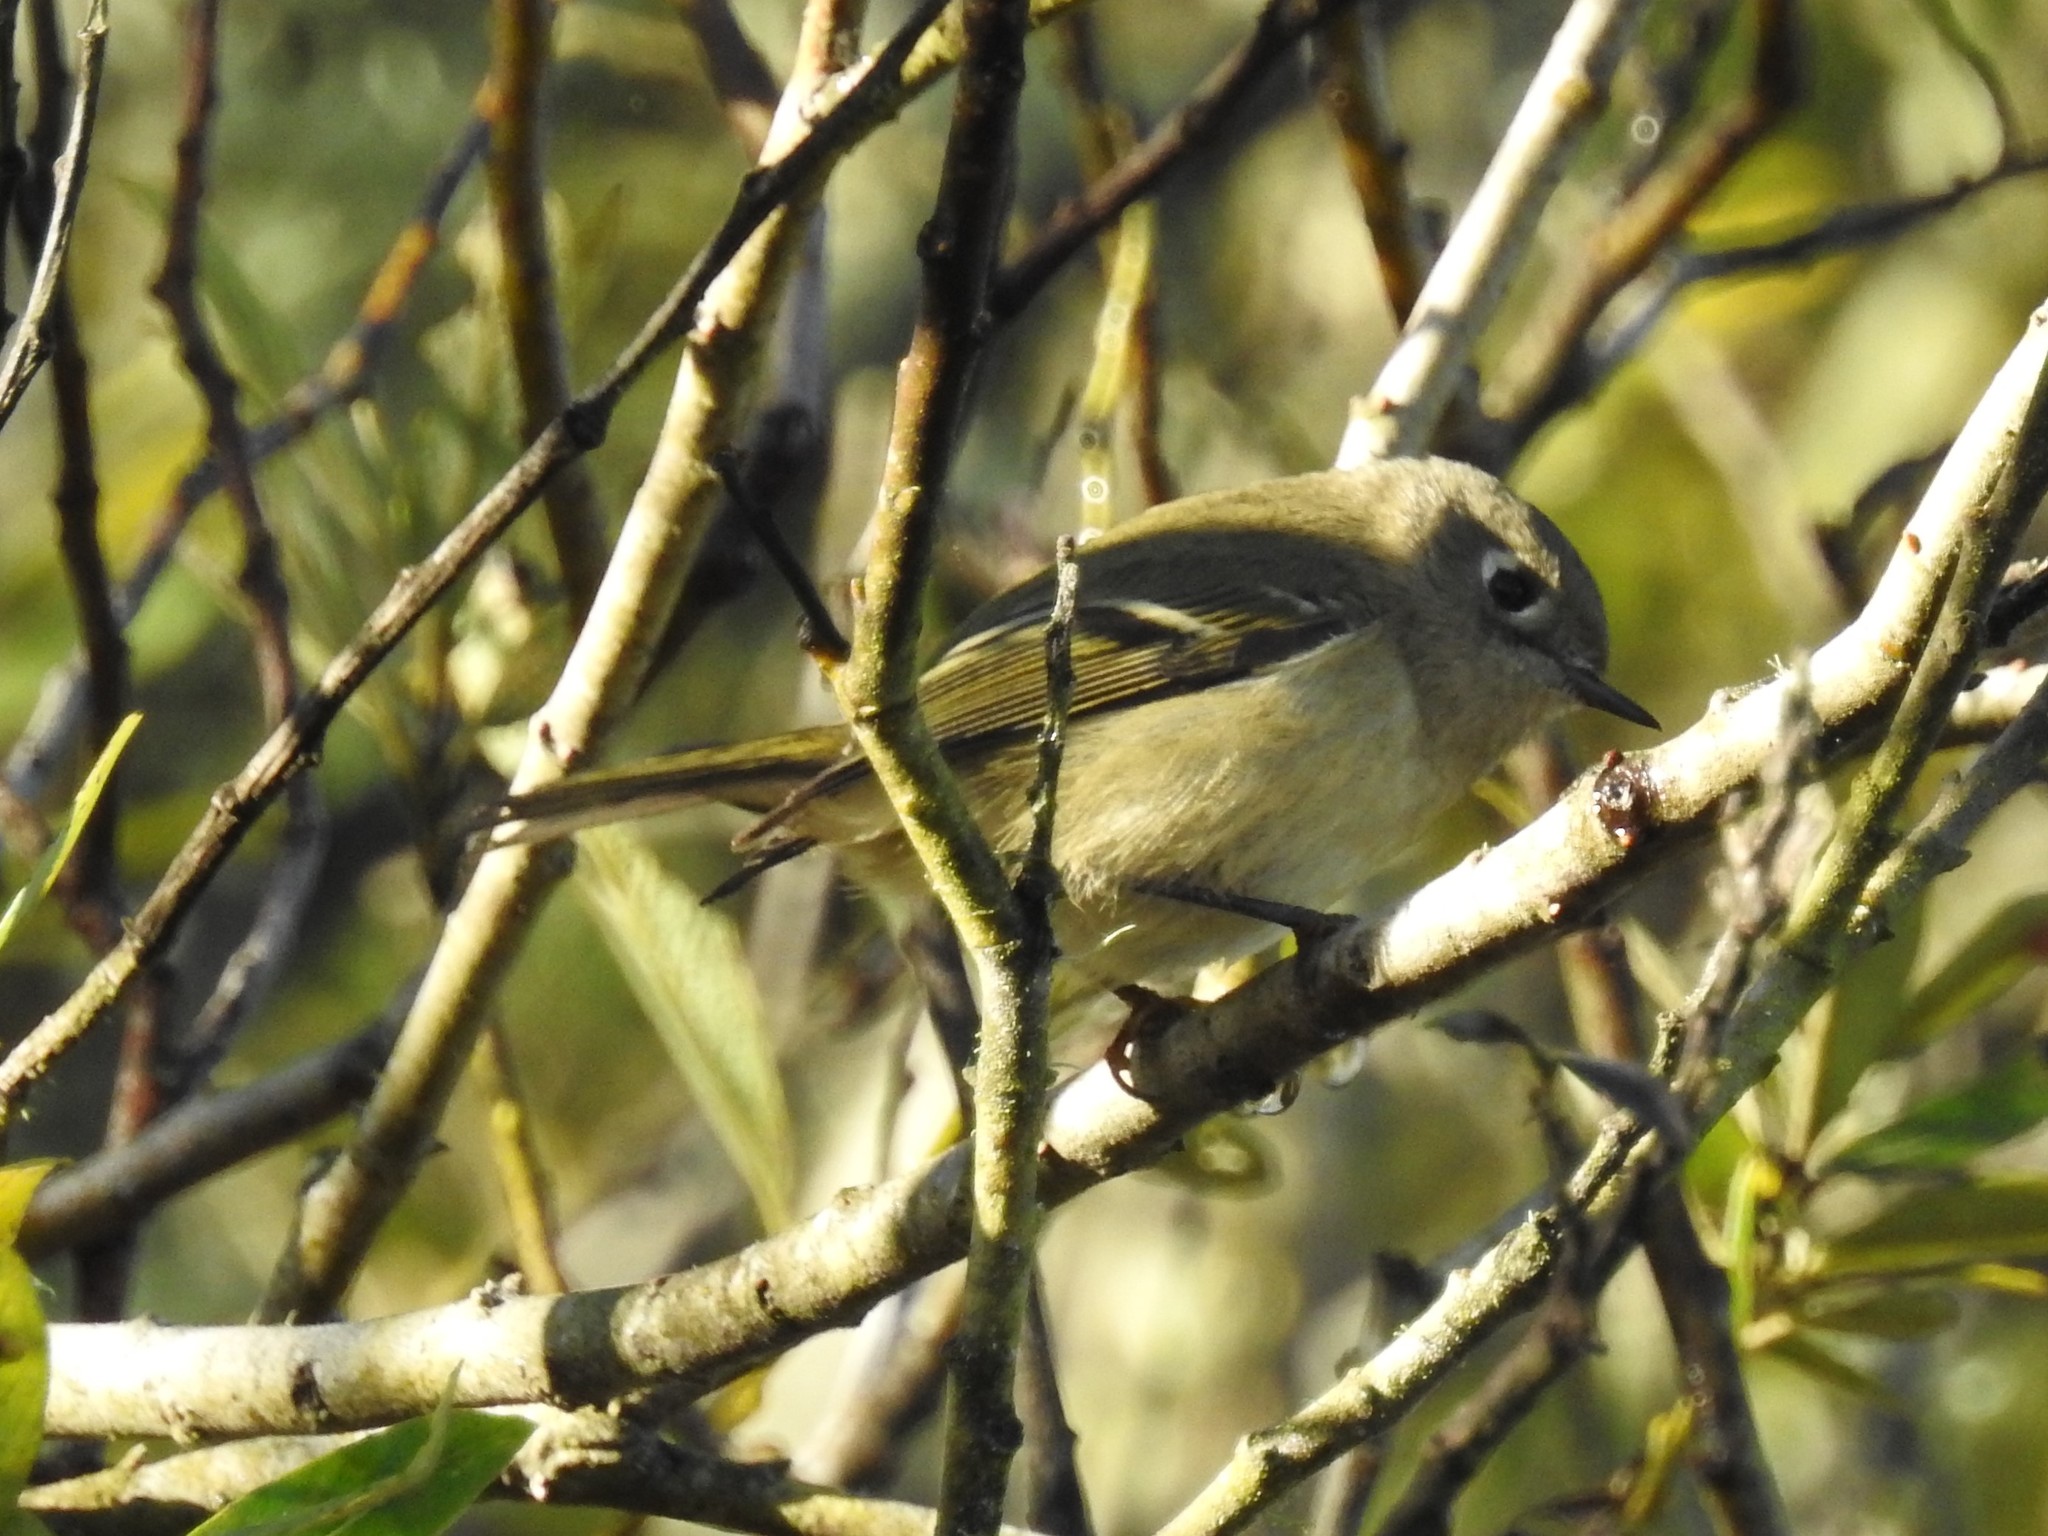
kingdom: Animalia
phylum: Chordata
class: Aves
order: Passeriformes
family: Regulidae
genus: Regulus
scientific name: Regulus calendula
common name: Ruby-crowned kinglet
